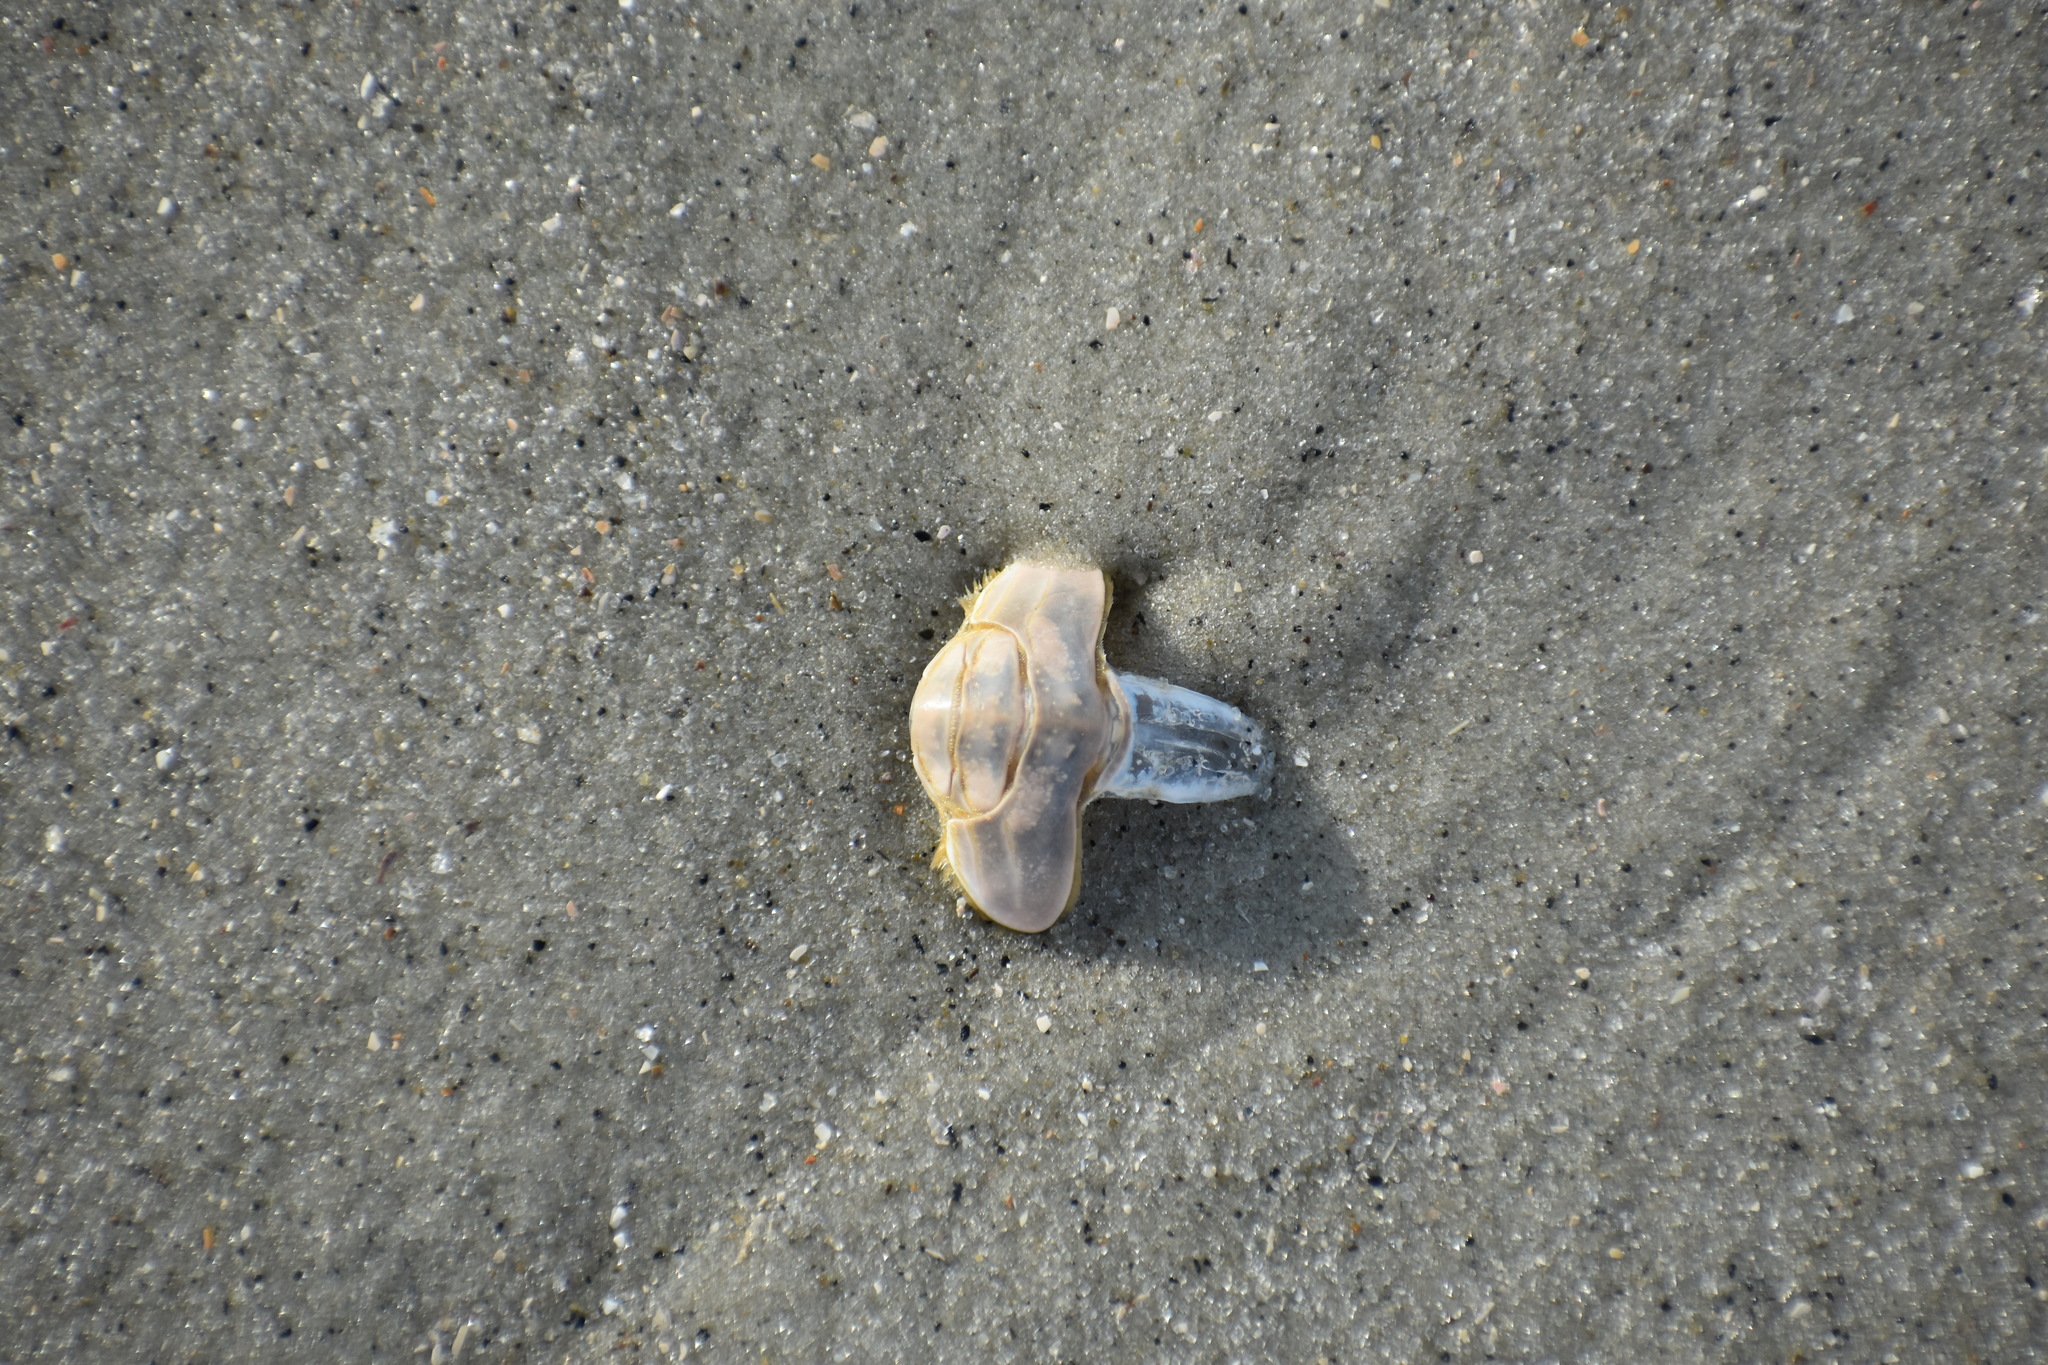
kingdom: Animalia
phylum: Arthropoda
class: Malacostraca
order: Decapoda
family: Hippidae
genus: Emerita
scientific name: Emerita talpoida
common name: Atlantic sand crab
